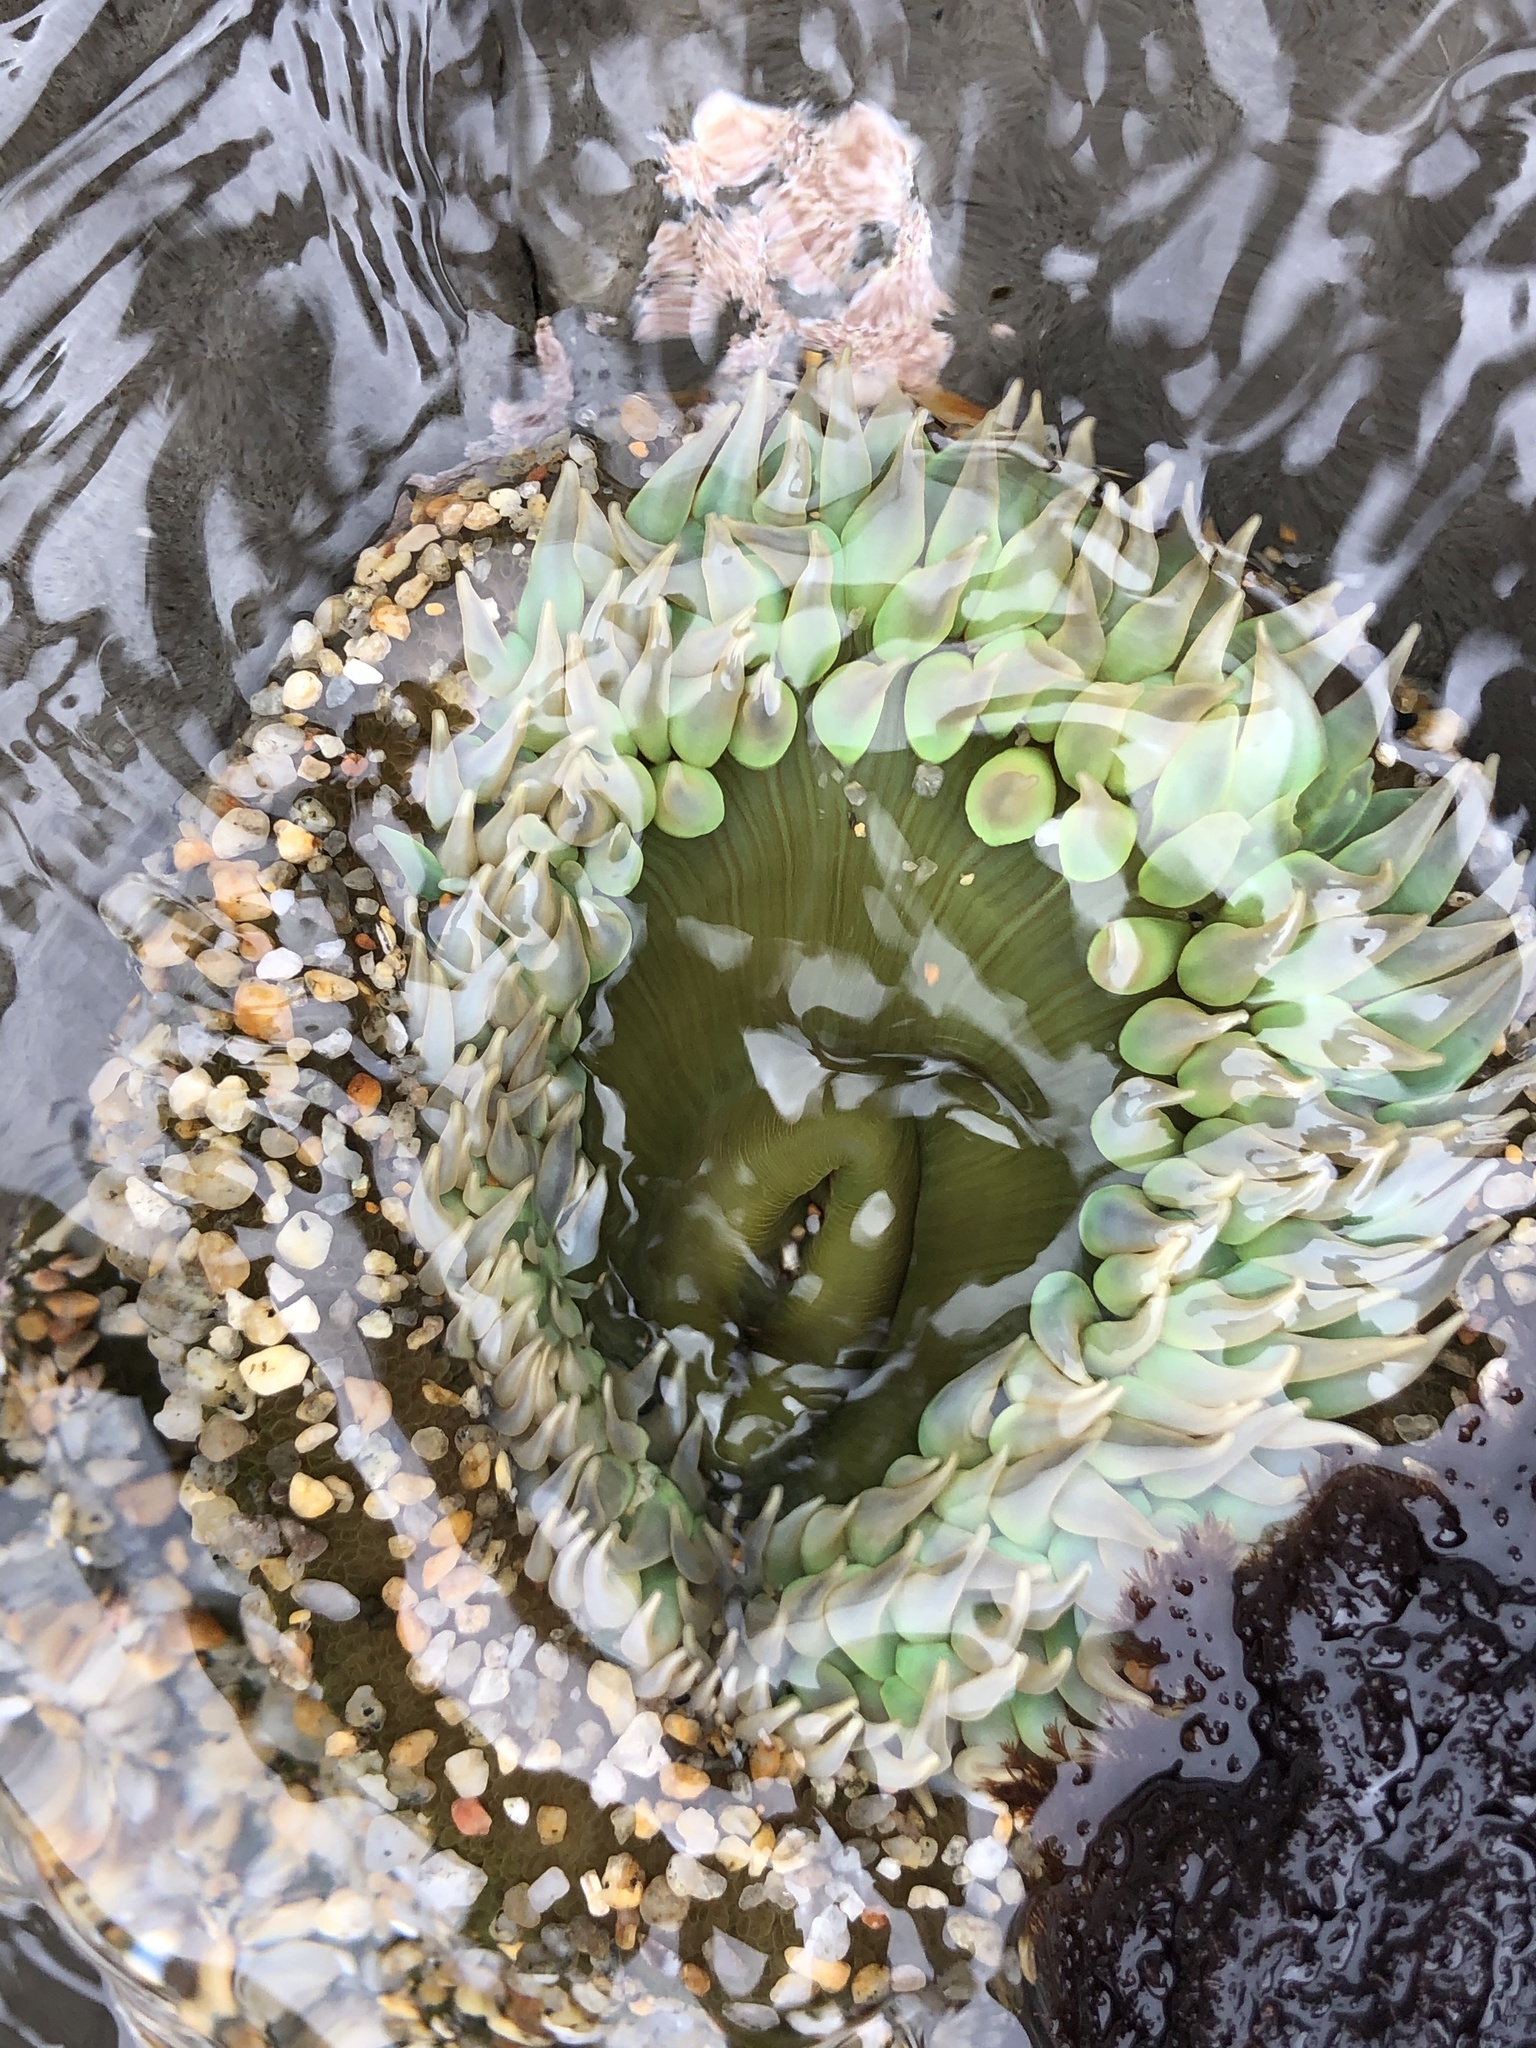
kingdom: Animalia
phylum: Cnidaria
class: Anthozoa
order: Actiniaria
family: Actiniidae
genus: Anthopleura
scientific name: Anthopleura xanthogrammica
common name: Giant green anemone
